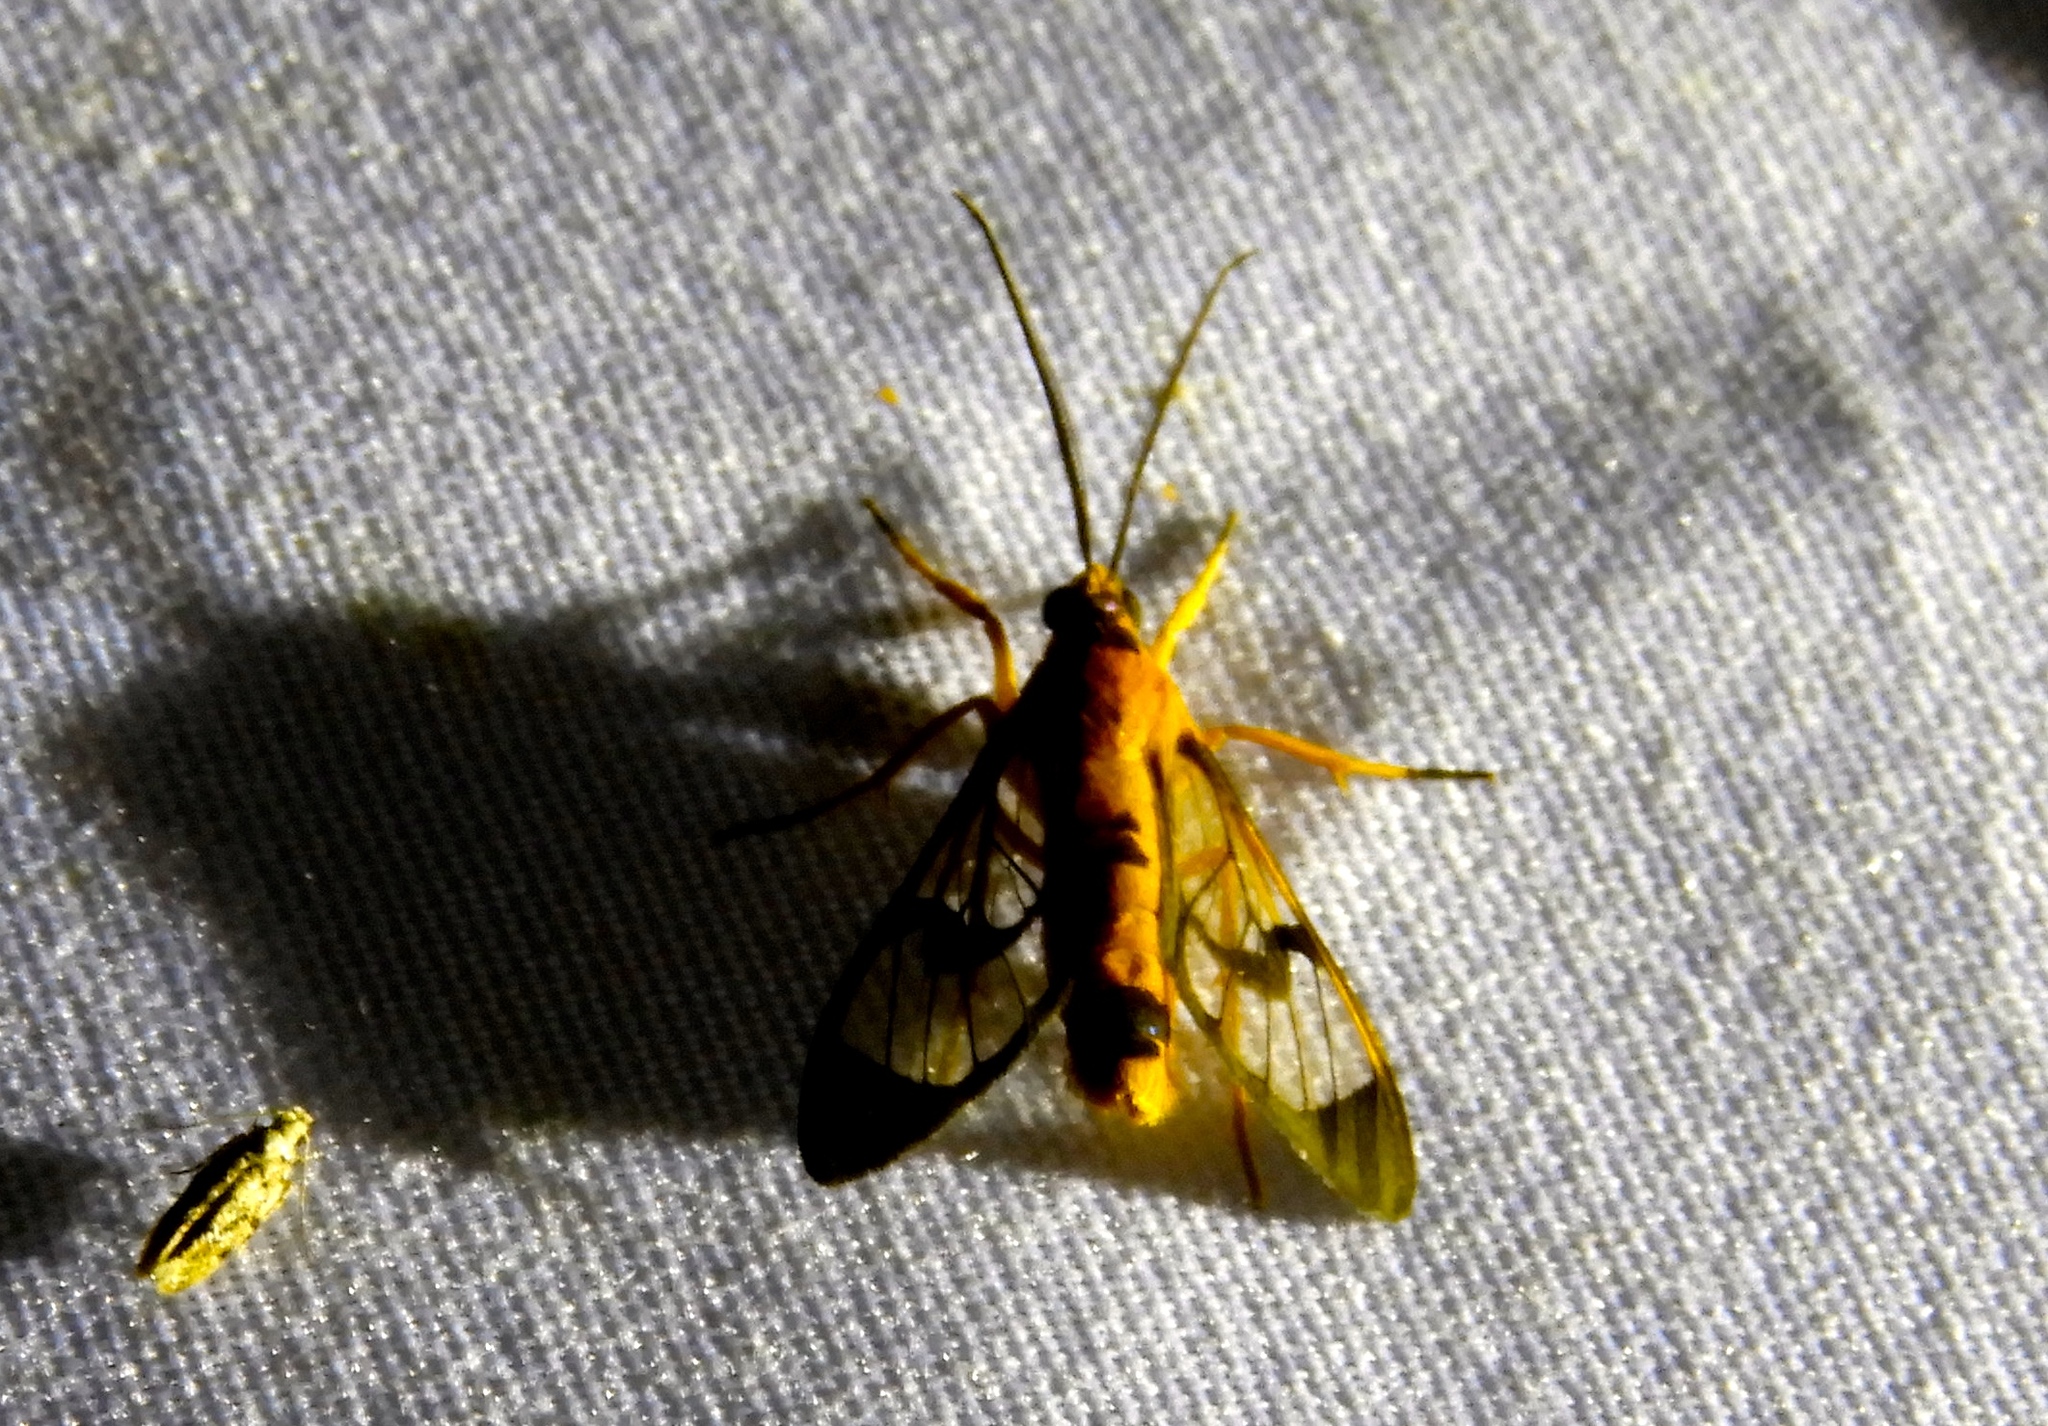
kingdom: Animalia
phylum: Arthropoda
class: Insecta
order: Lepidoptera
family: Erebidae
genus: Pseudosphex
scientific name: Pseudosphex leovazquezae
